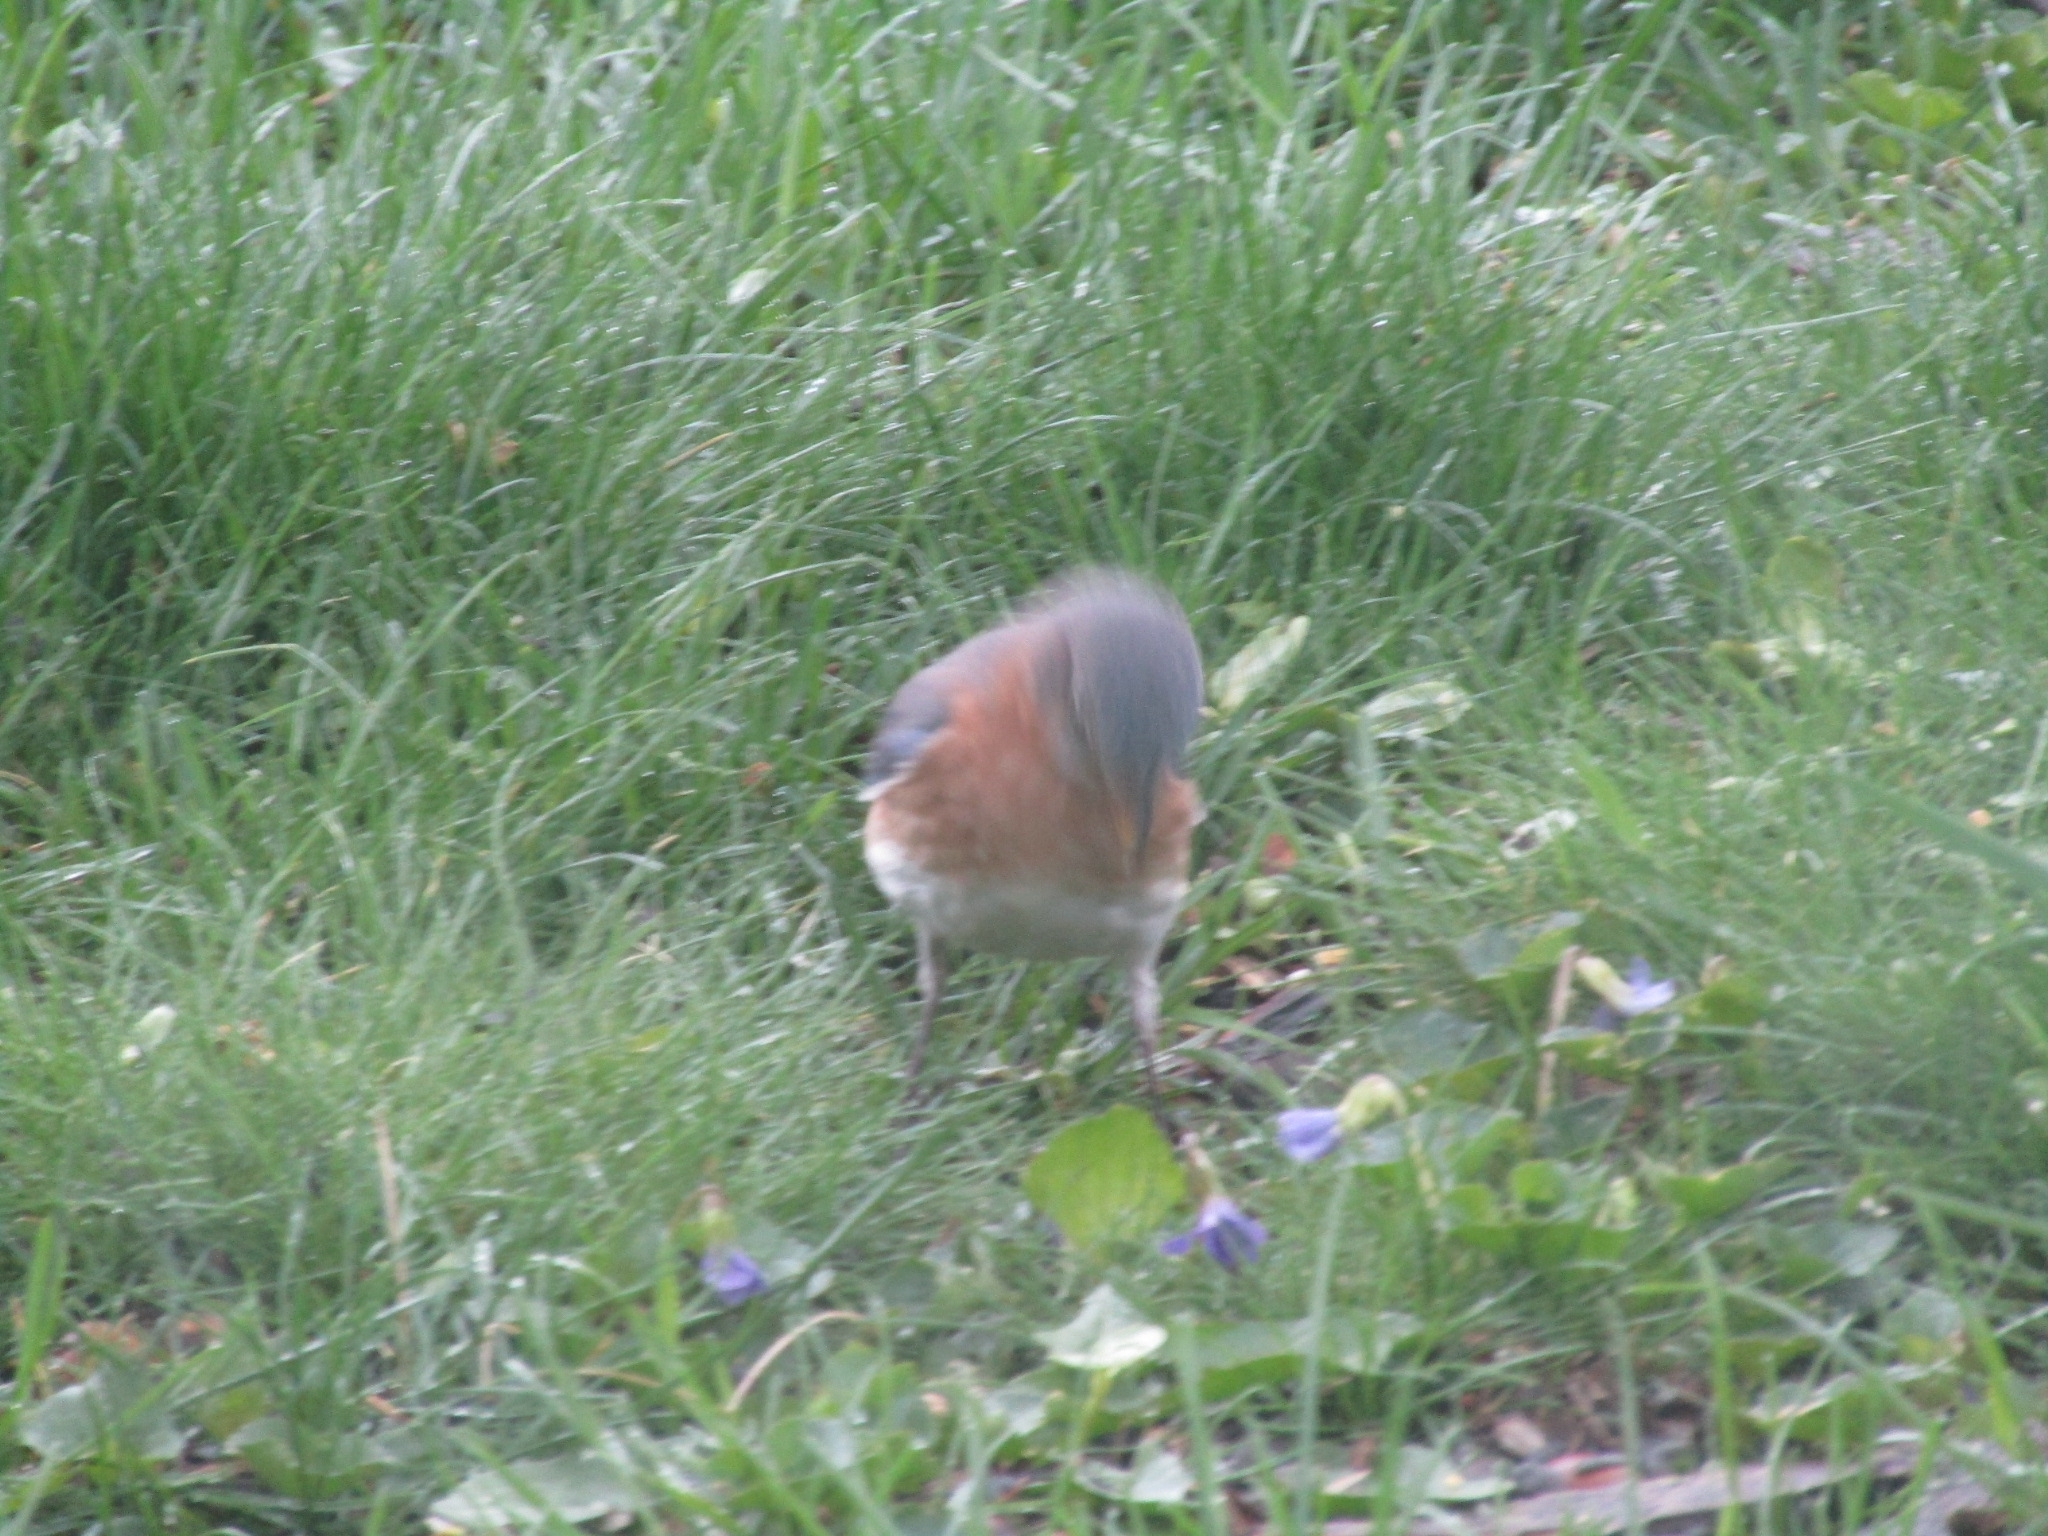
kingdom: Animalia
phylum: Chordata
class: Aves
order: Passeriformes
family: Turdidae
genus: Sialia
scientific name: Sialia sialis
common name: Eastern bluebird
